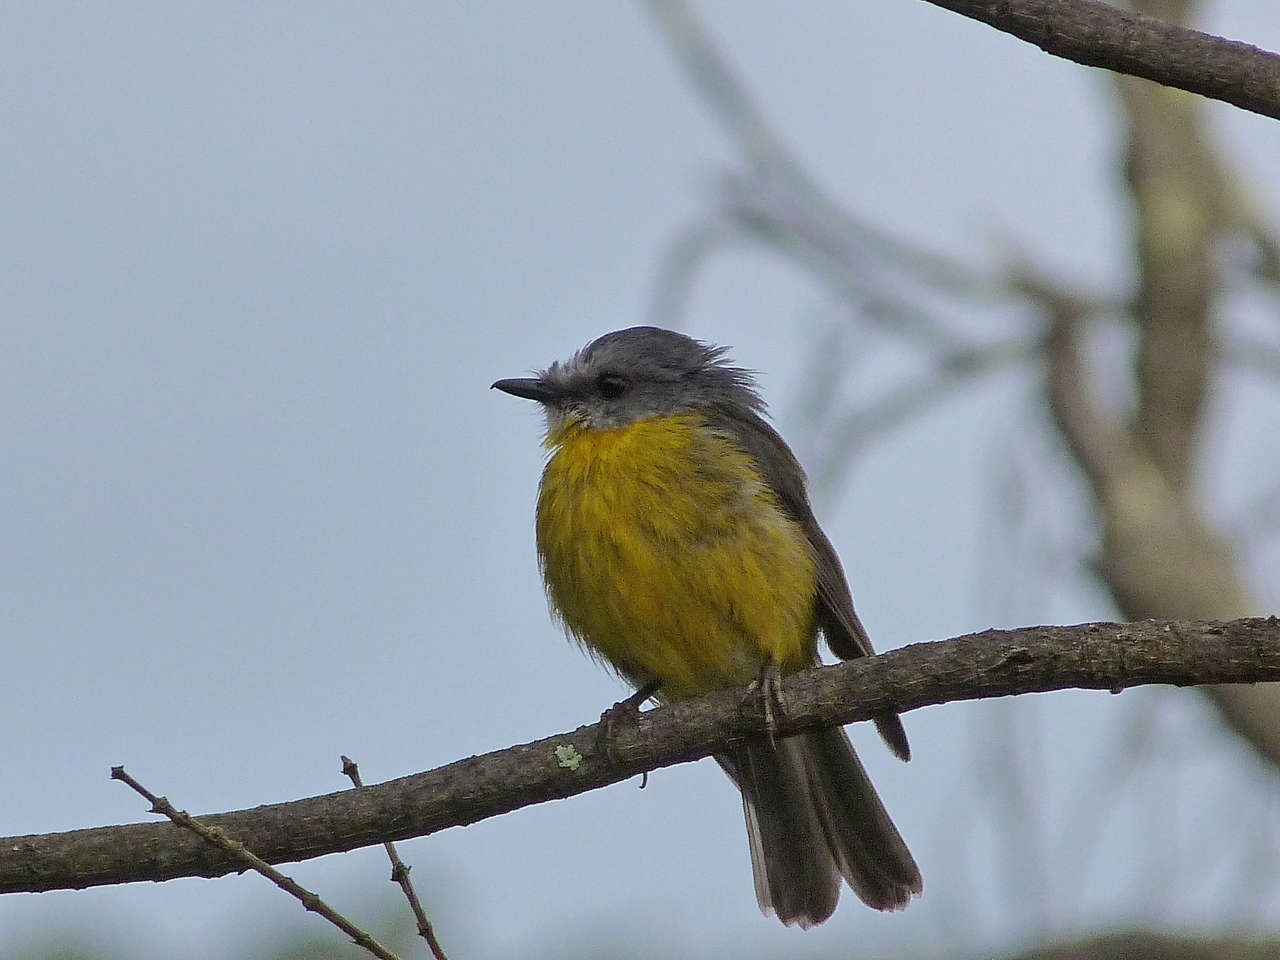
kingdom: Animalia
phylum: Chordata
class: Aves
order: Passeriformes
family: Petroicidae
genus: Eopsaltria
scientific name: Eopsaltria australis
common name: Eastern yellow robin
